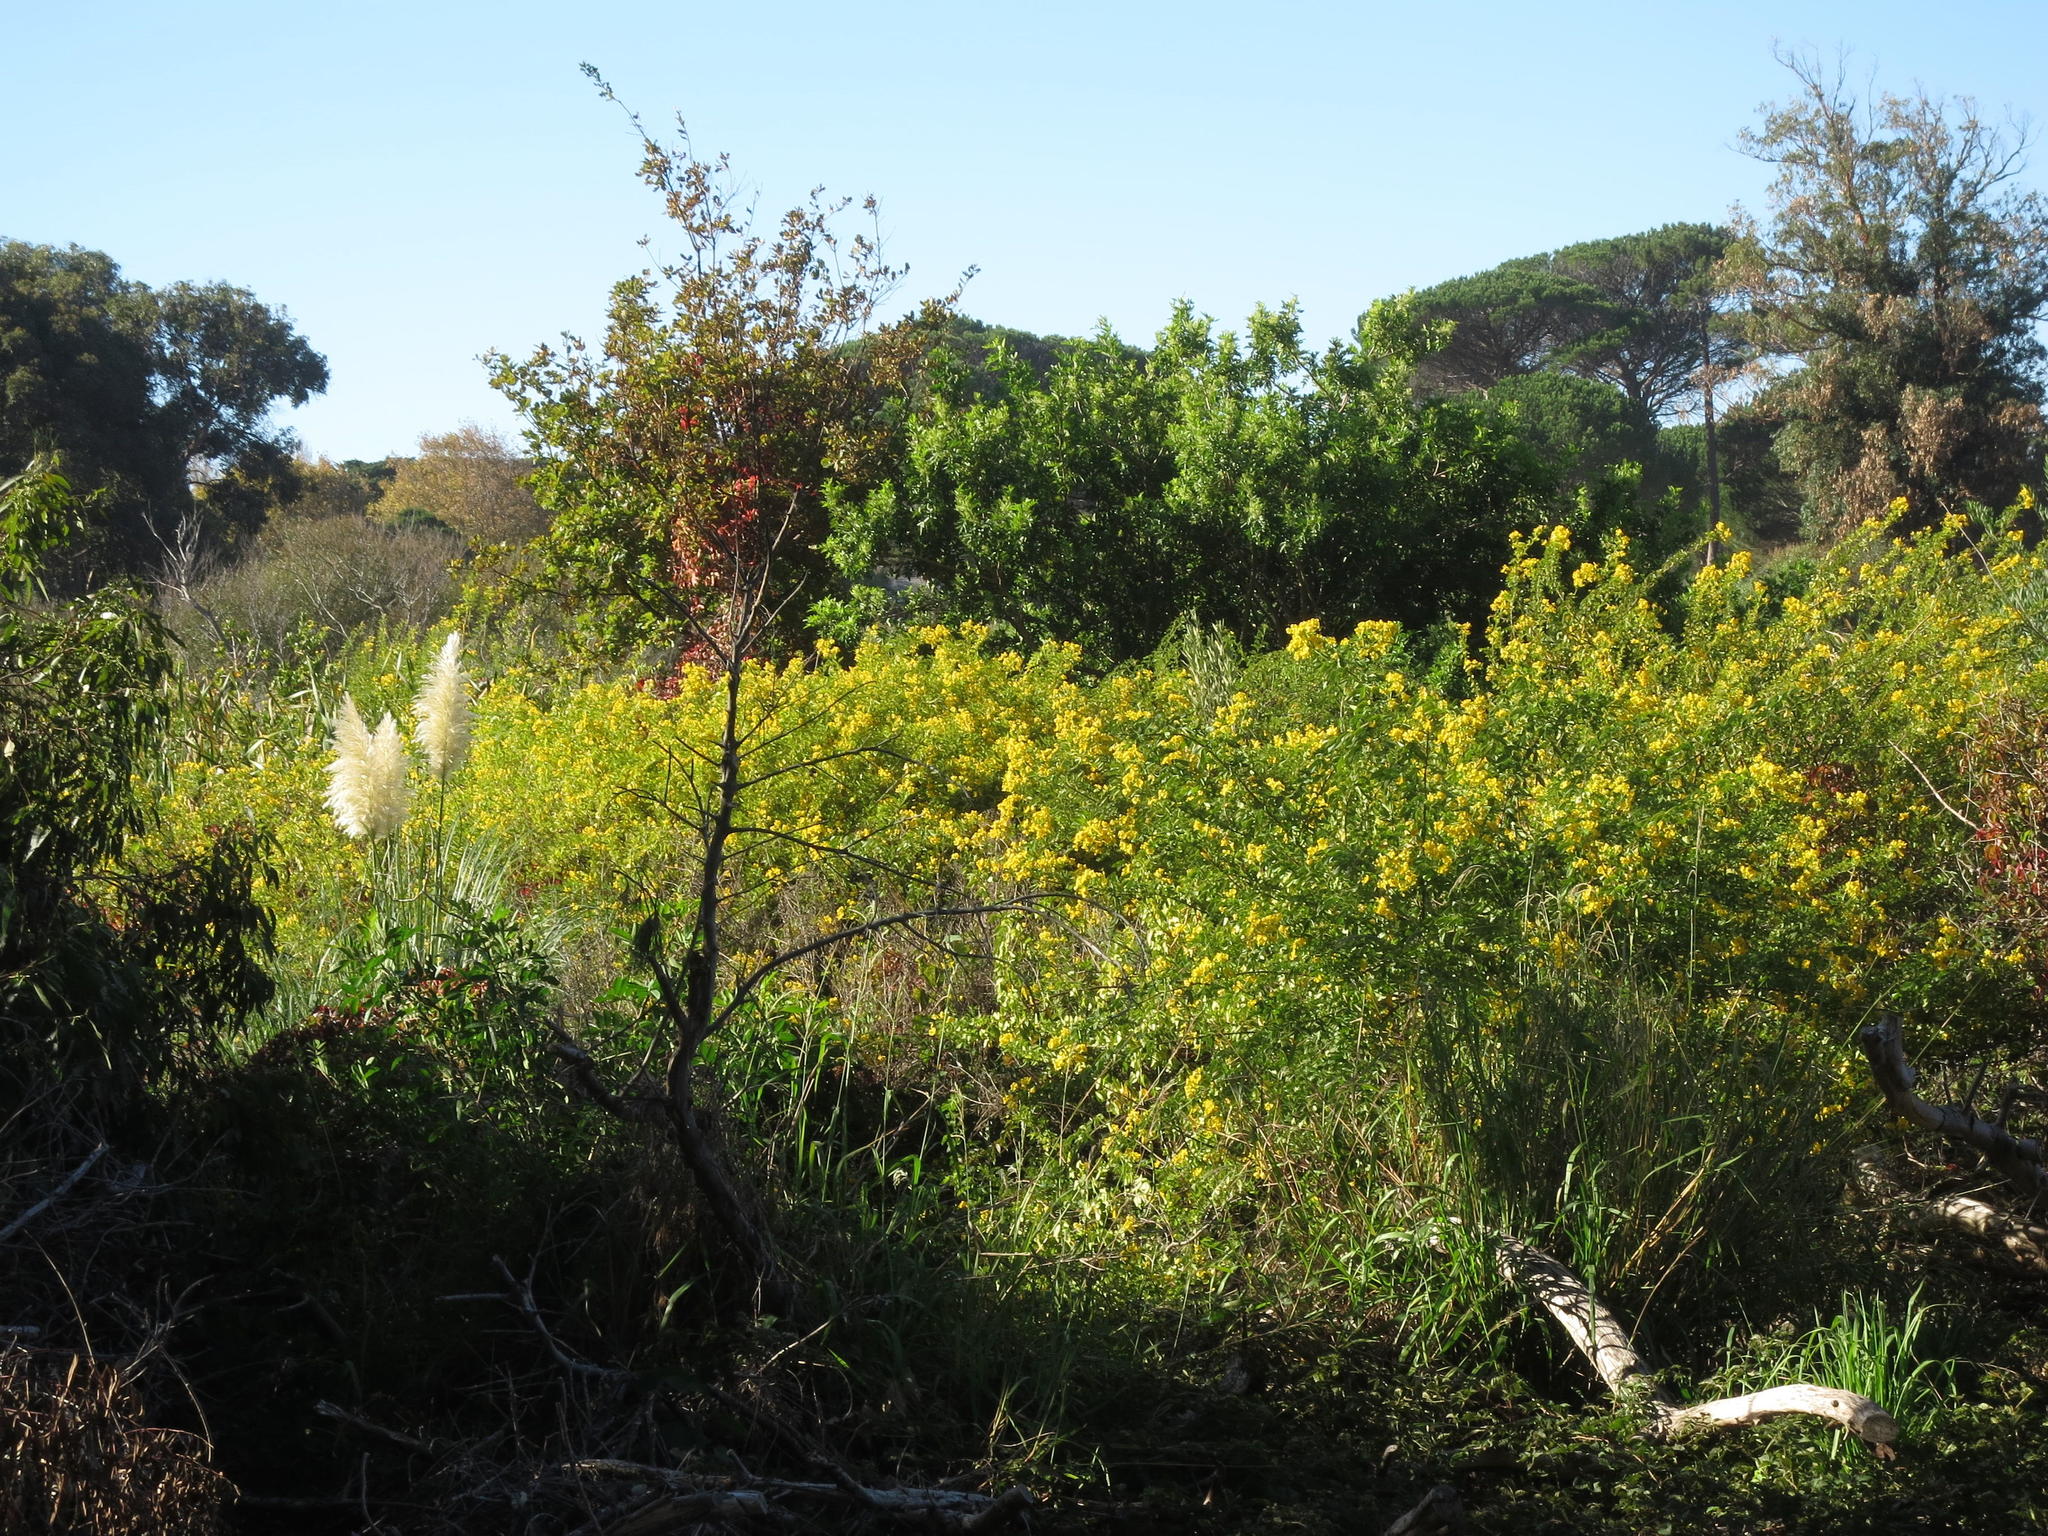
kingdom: Plantae
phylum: Tracheophyta
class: Liliopsida
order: Poales
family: Poaceae
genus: Cortaderia
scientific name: Cortaderia selloana
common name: Uruguayan pampas grass
